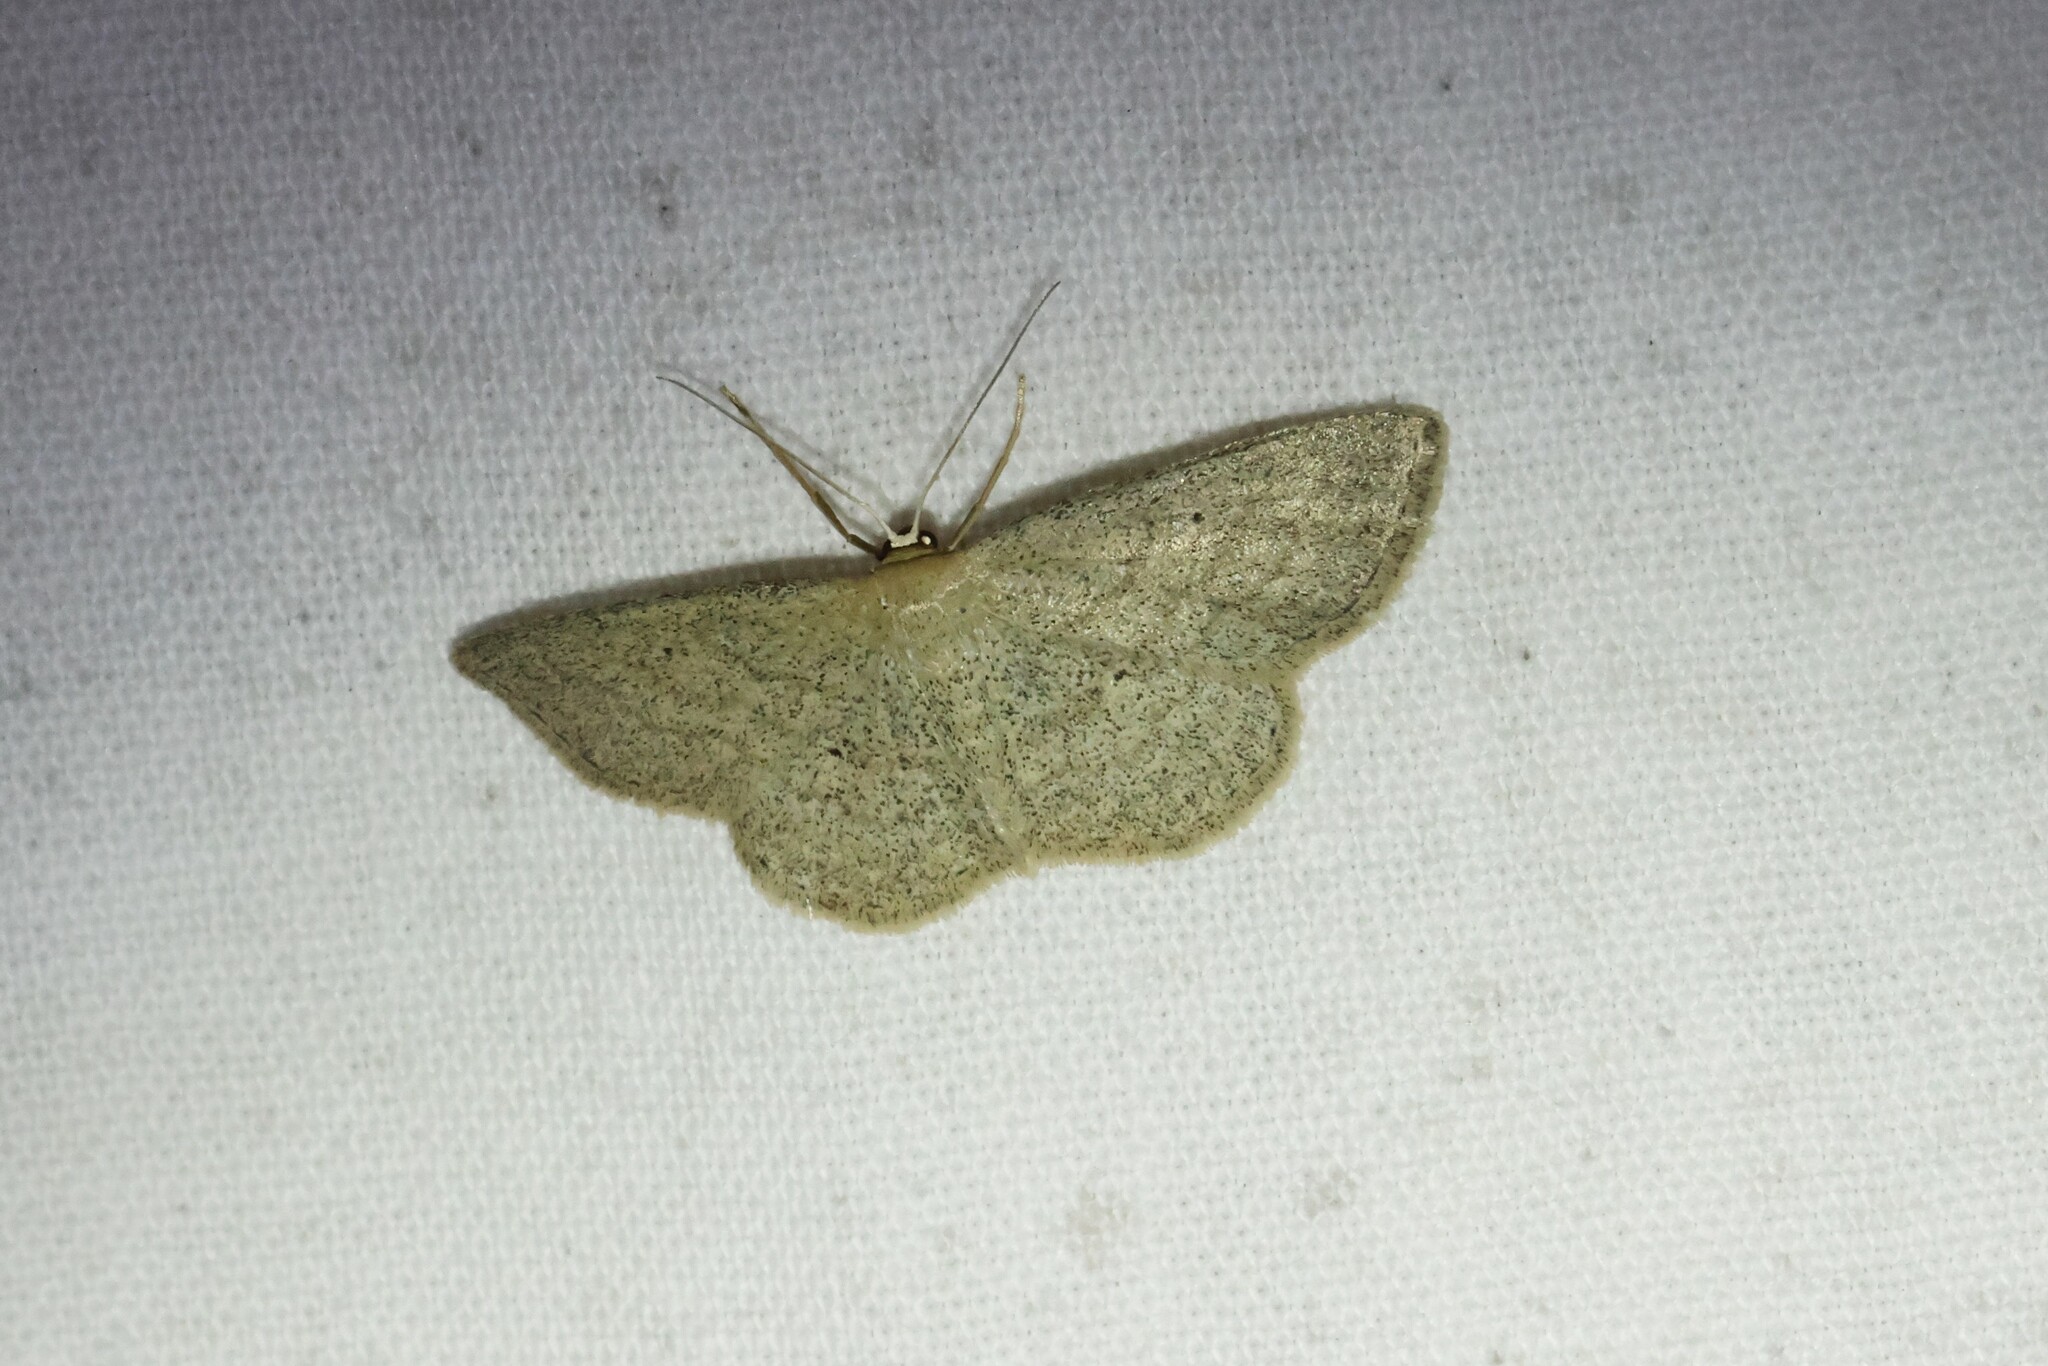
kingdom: Animalia
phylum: Arthropoda
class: Insecta
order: Lepidoptera
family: Geometridae
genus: Pleuroprucha
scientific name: Pleuroprucha insulsaria
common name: Common tan wave
